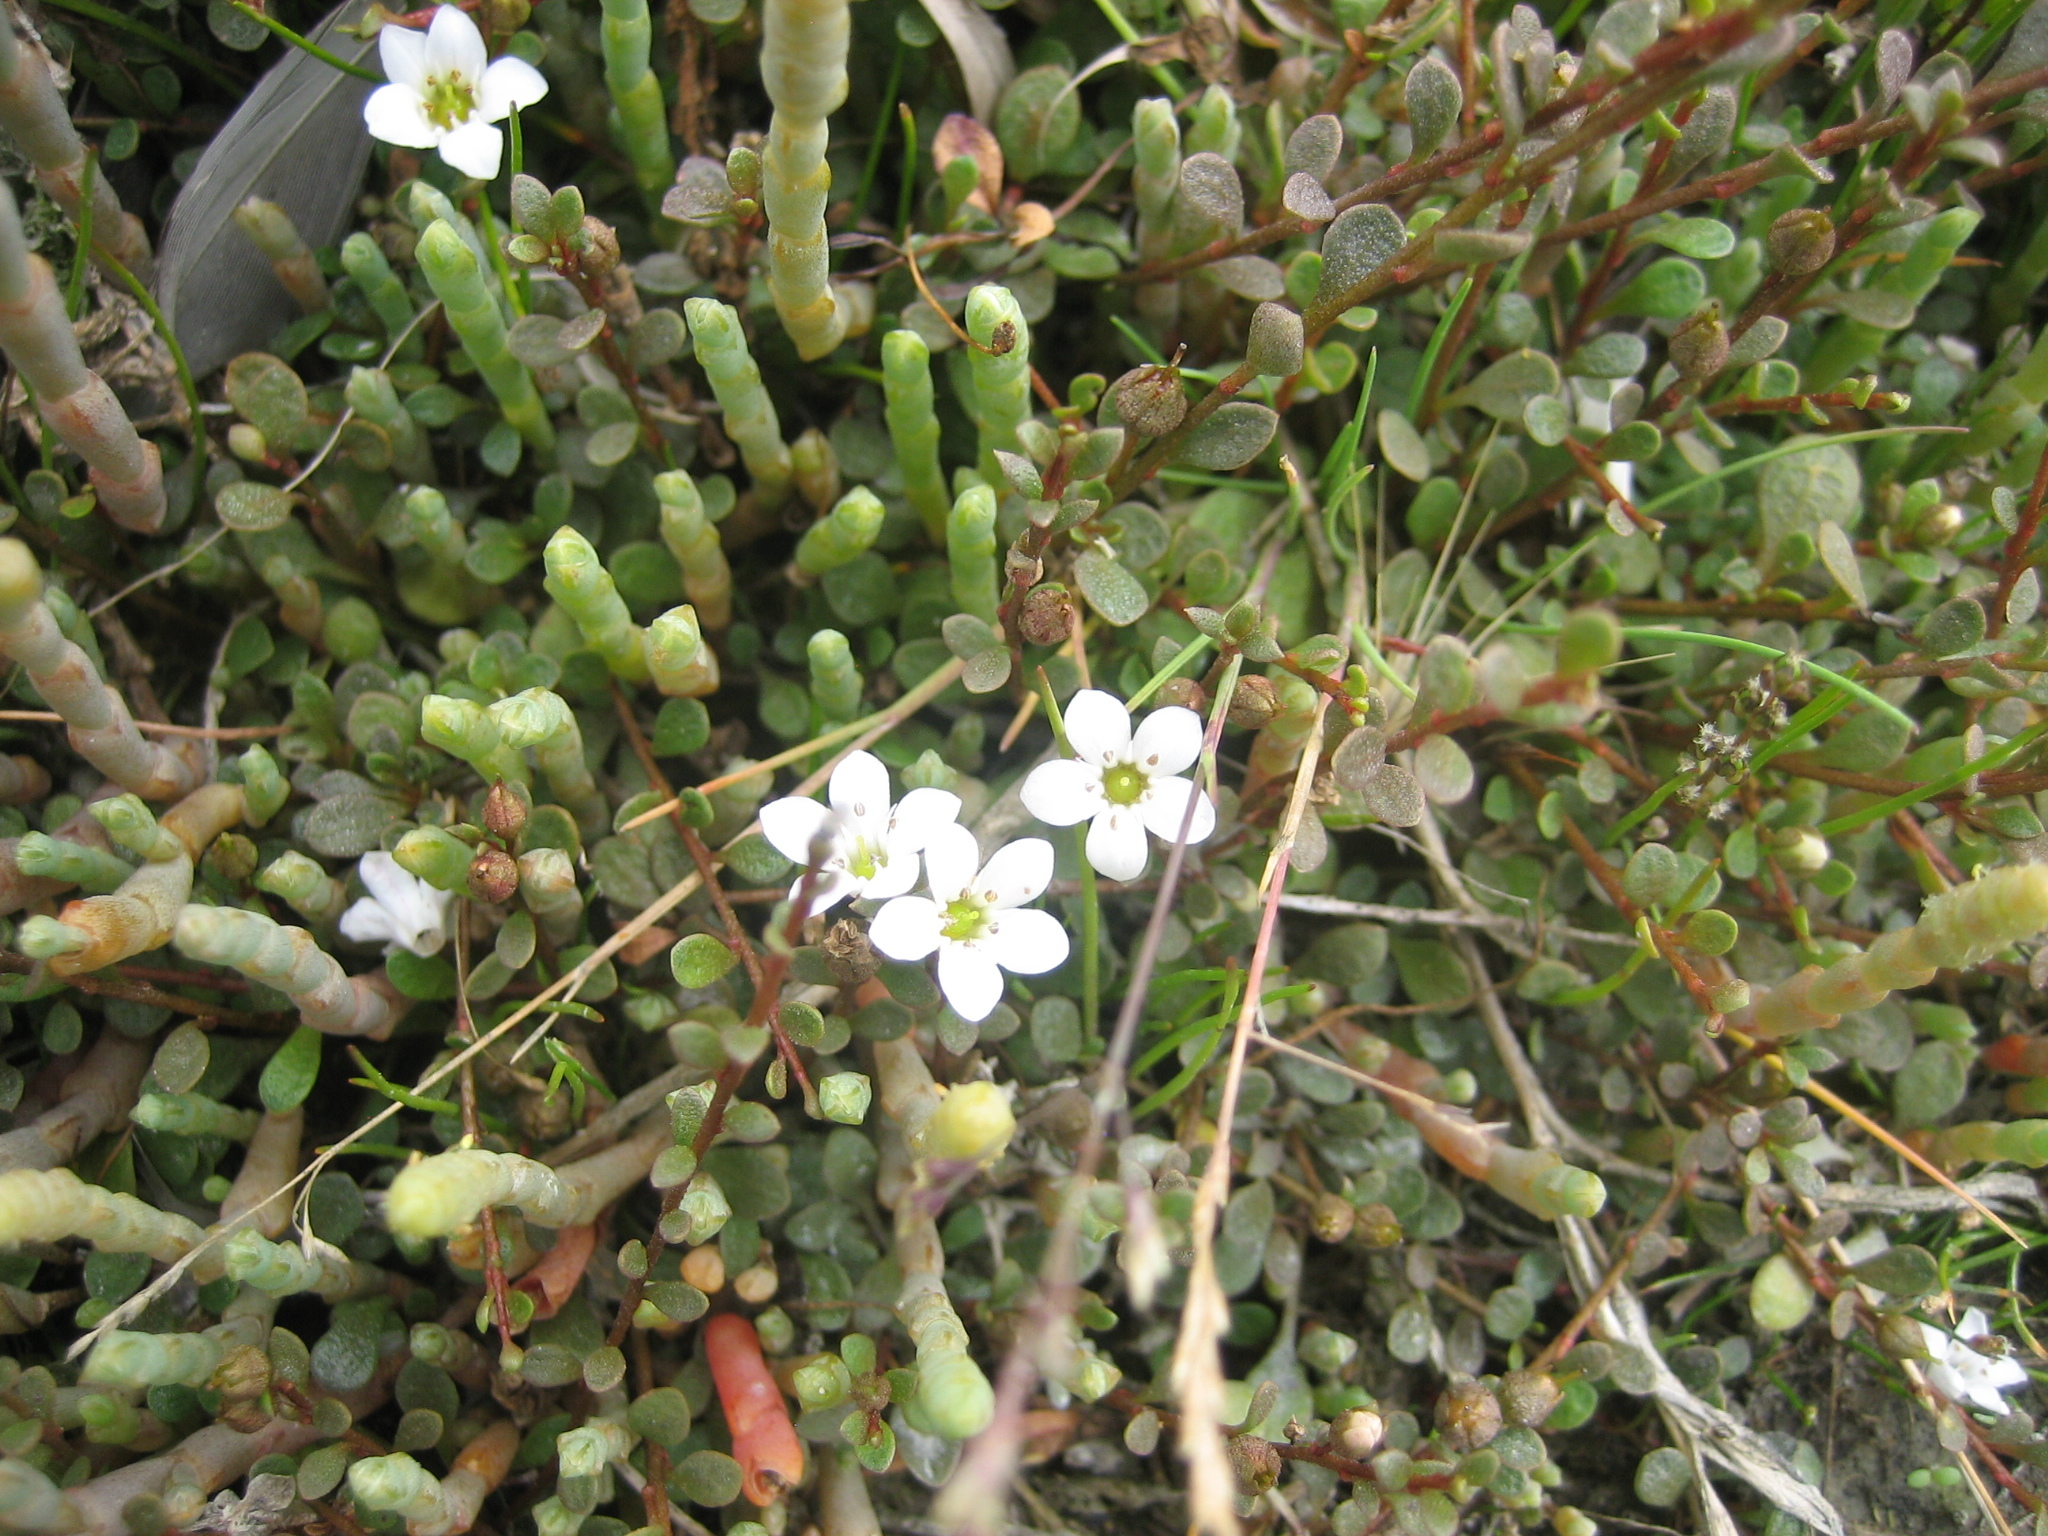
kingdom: Plantae
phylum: Tracheophyta
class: Magnoliopsida
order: Ericales
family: Primulaceae
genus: Samolus
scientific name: Samolus repens
